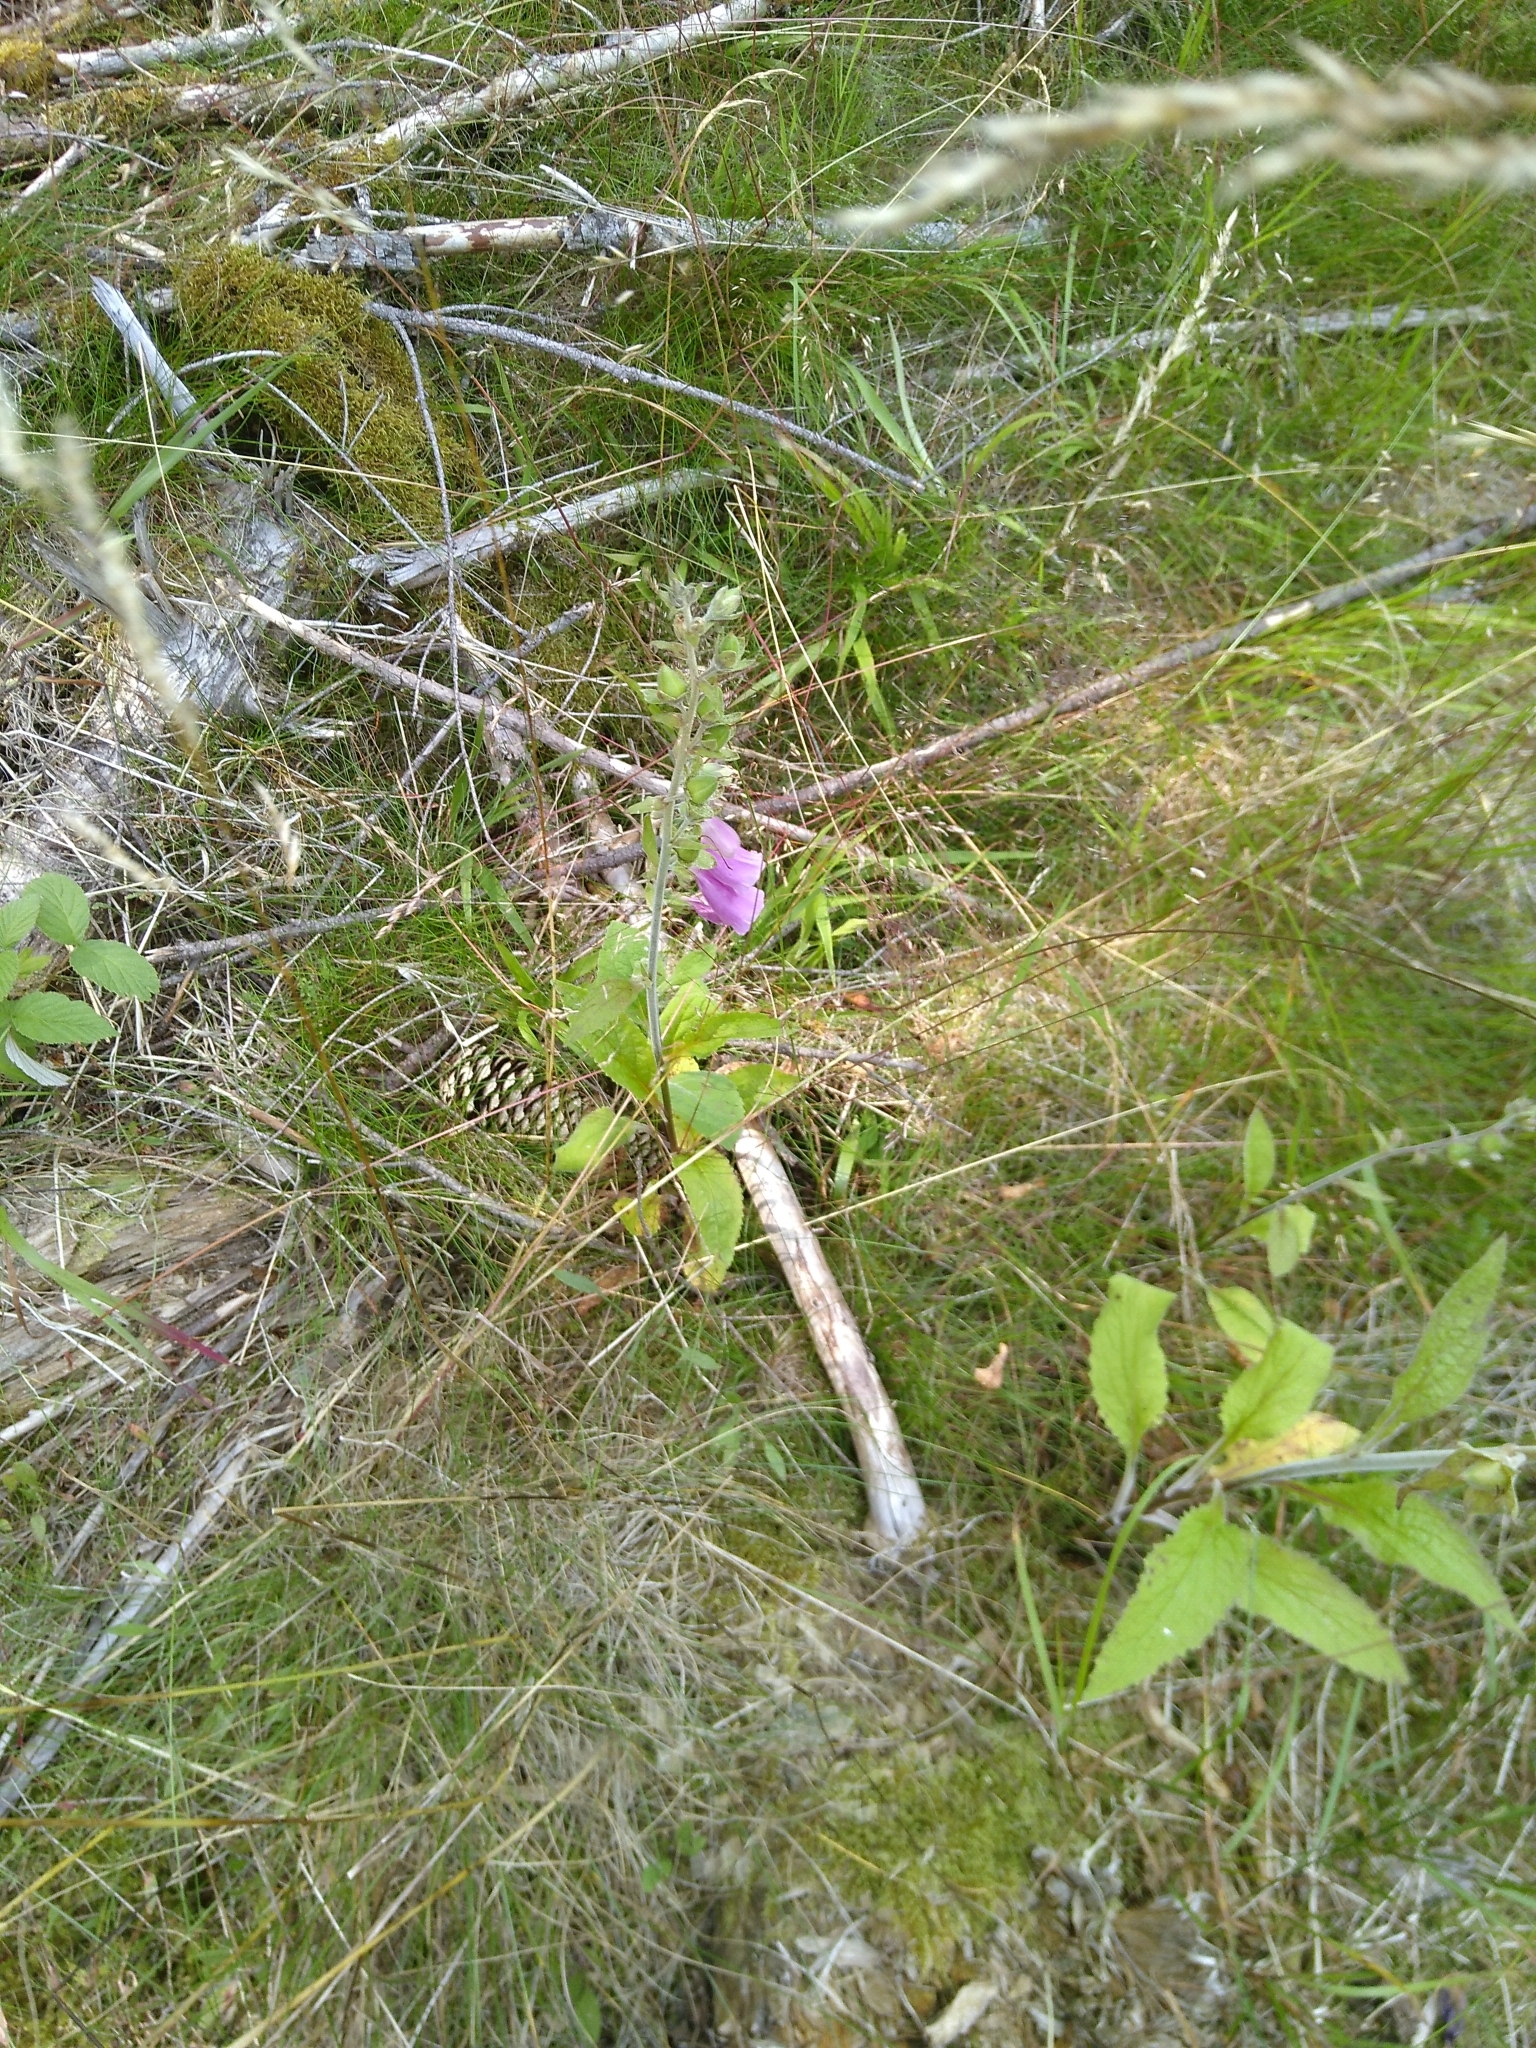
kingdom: Plantae
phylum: Tracheophyta
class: Magnoliopsida
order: Lamiales
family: Plantaginaceae
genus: Digitalis
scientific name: Digitalis purpurea
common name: Foxglove
